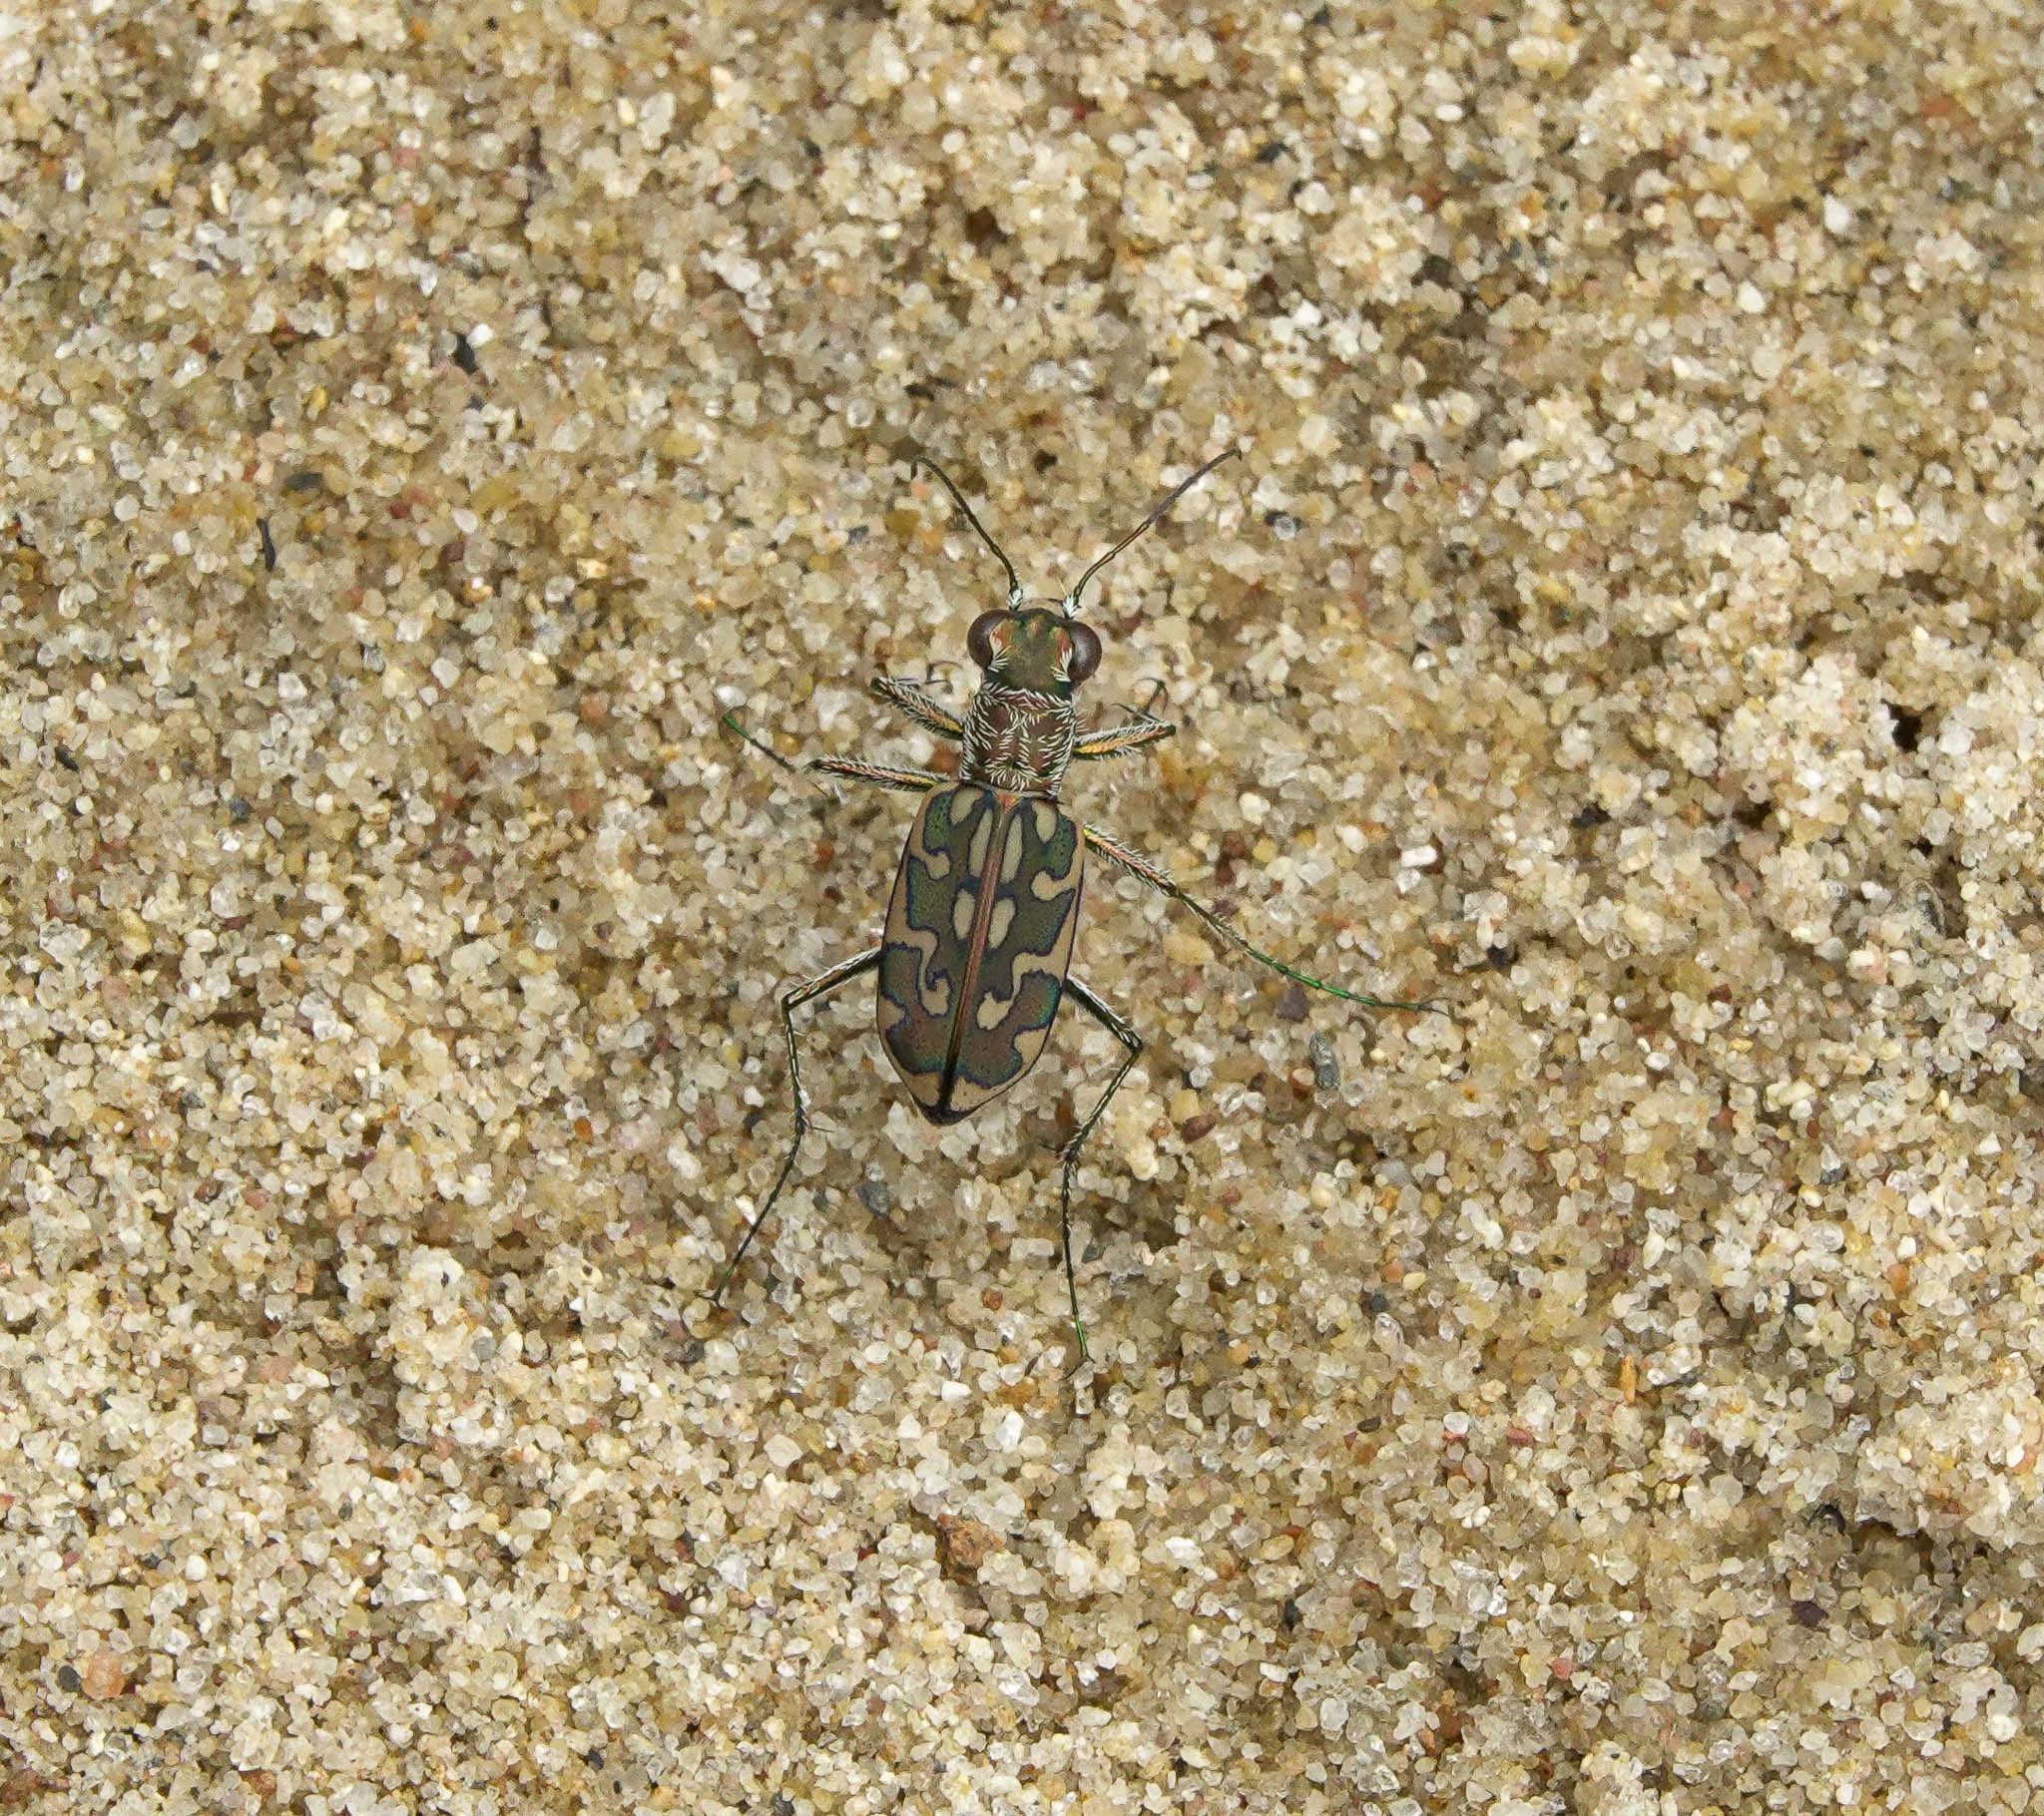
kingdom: Animalia
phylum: Arthropoda
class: Insecta
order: Coleoptera
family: Carabidae
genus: Lophyra
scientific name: Lophyra cancellata
